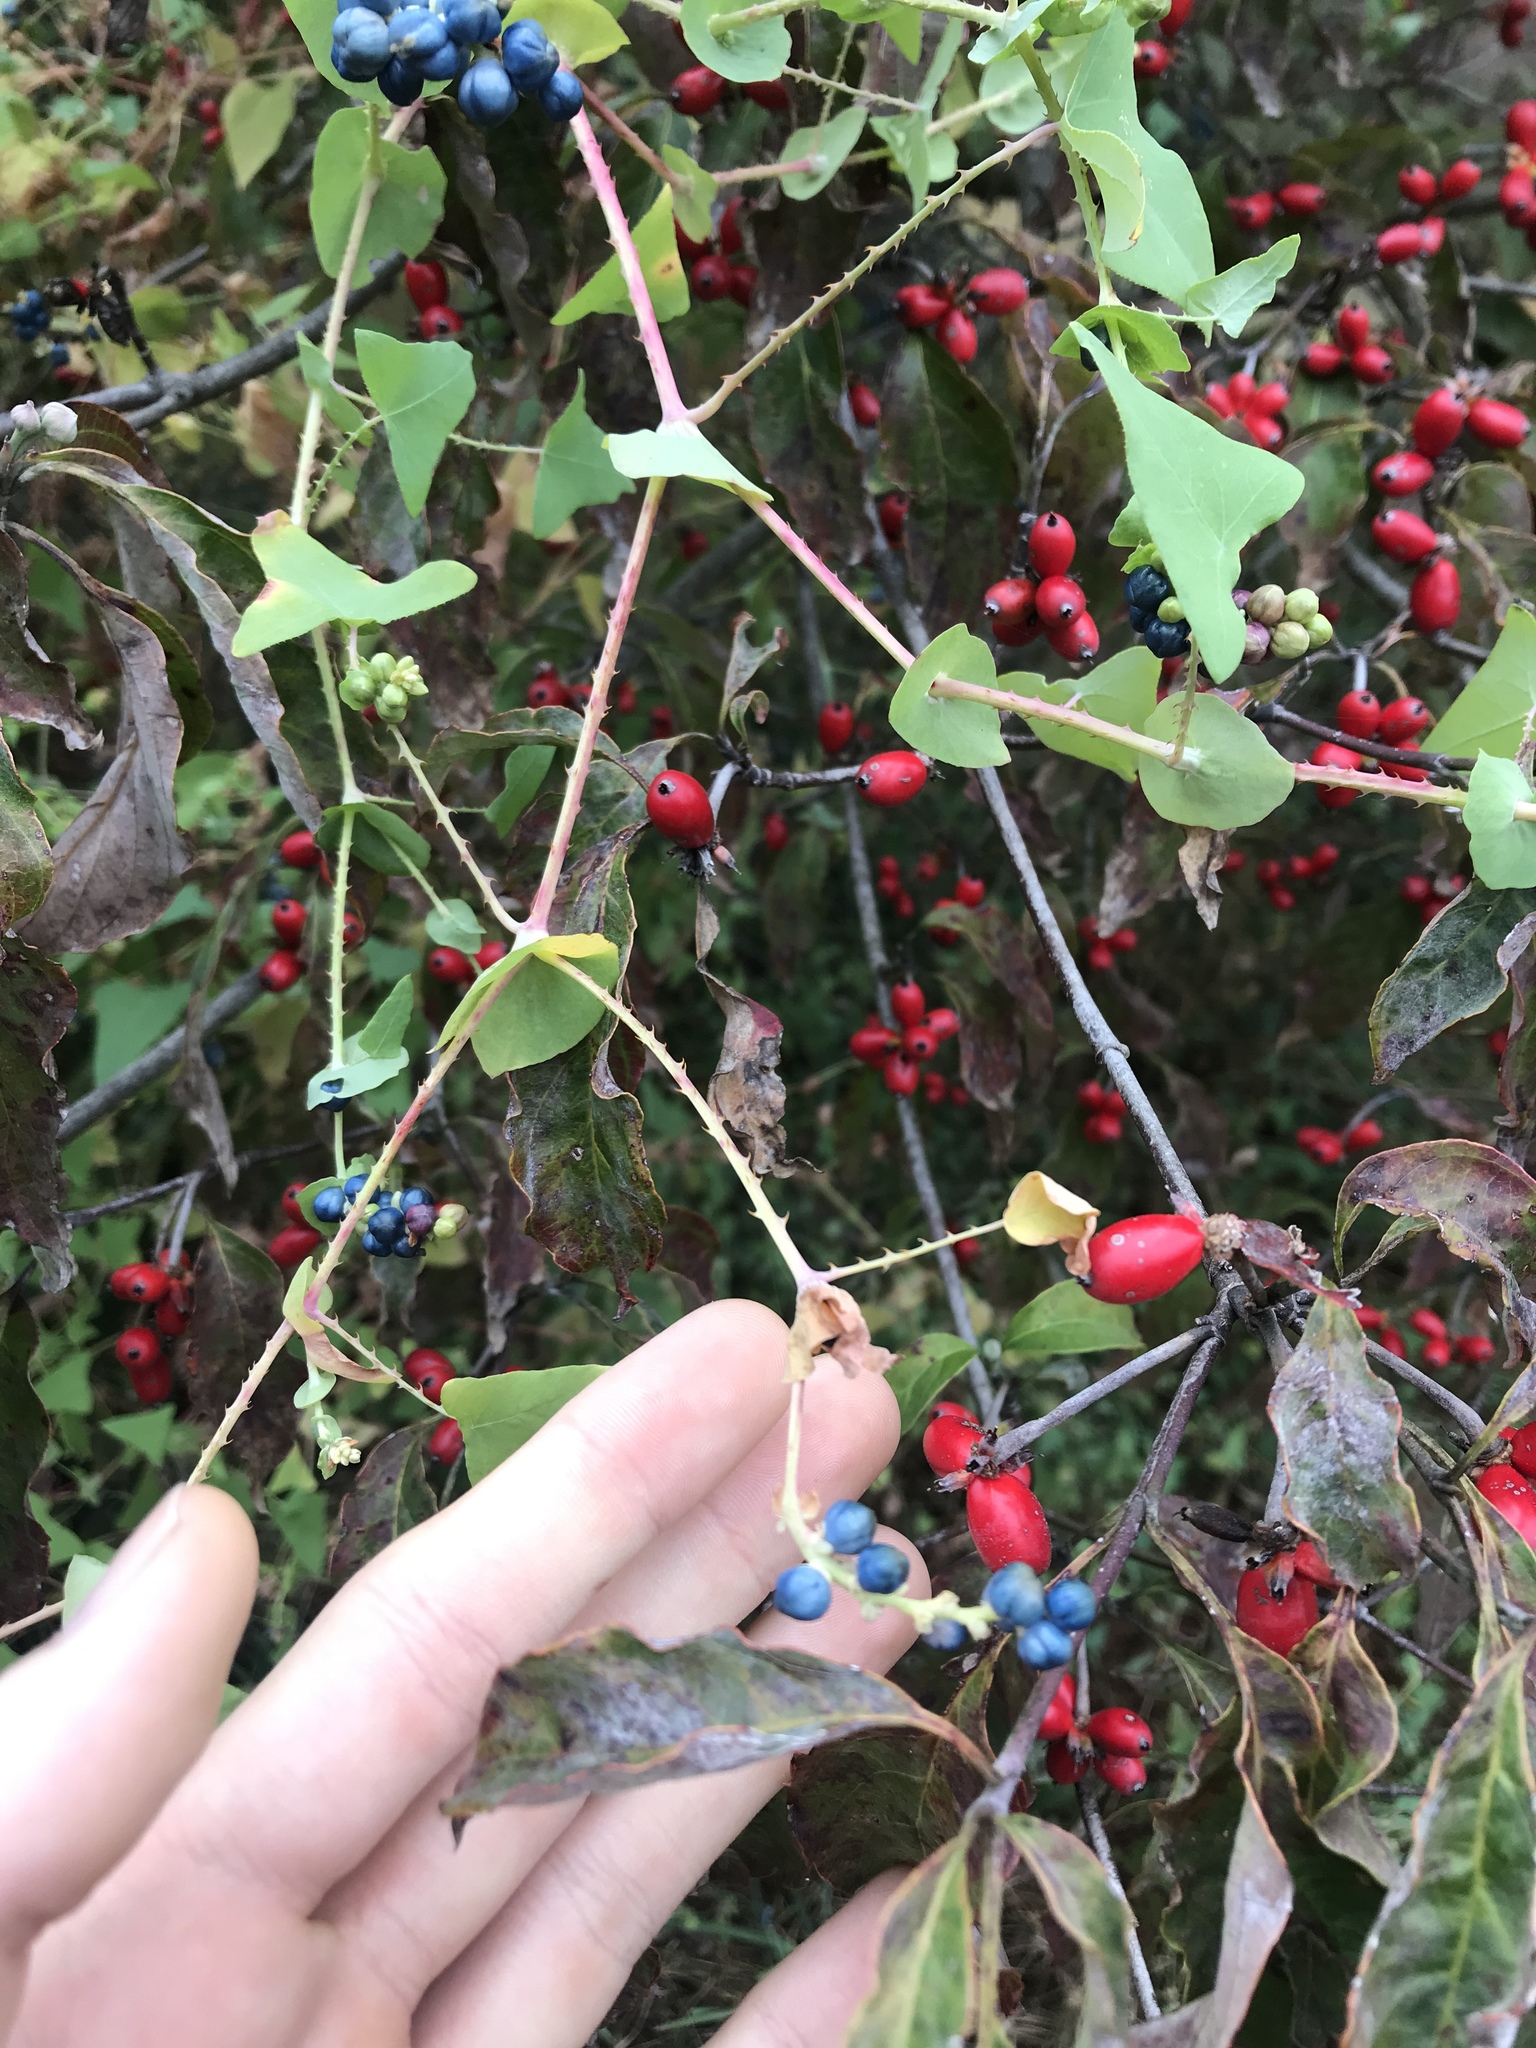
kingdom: Plantae
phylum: Tracheophyta
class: Magnoliopsida
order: Caryophyllales
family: Polygonaceae
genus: Persicaria
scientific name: Persicaria perfoliata
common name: Asiatic tearthumb
